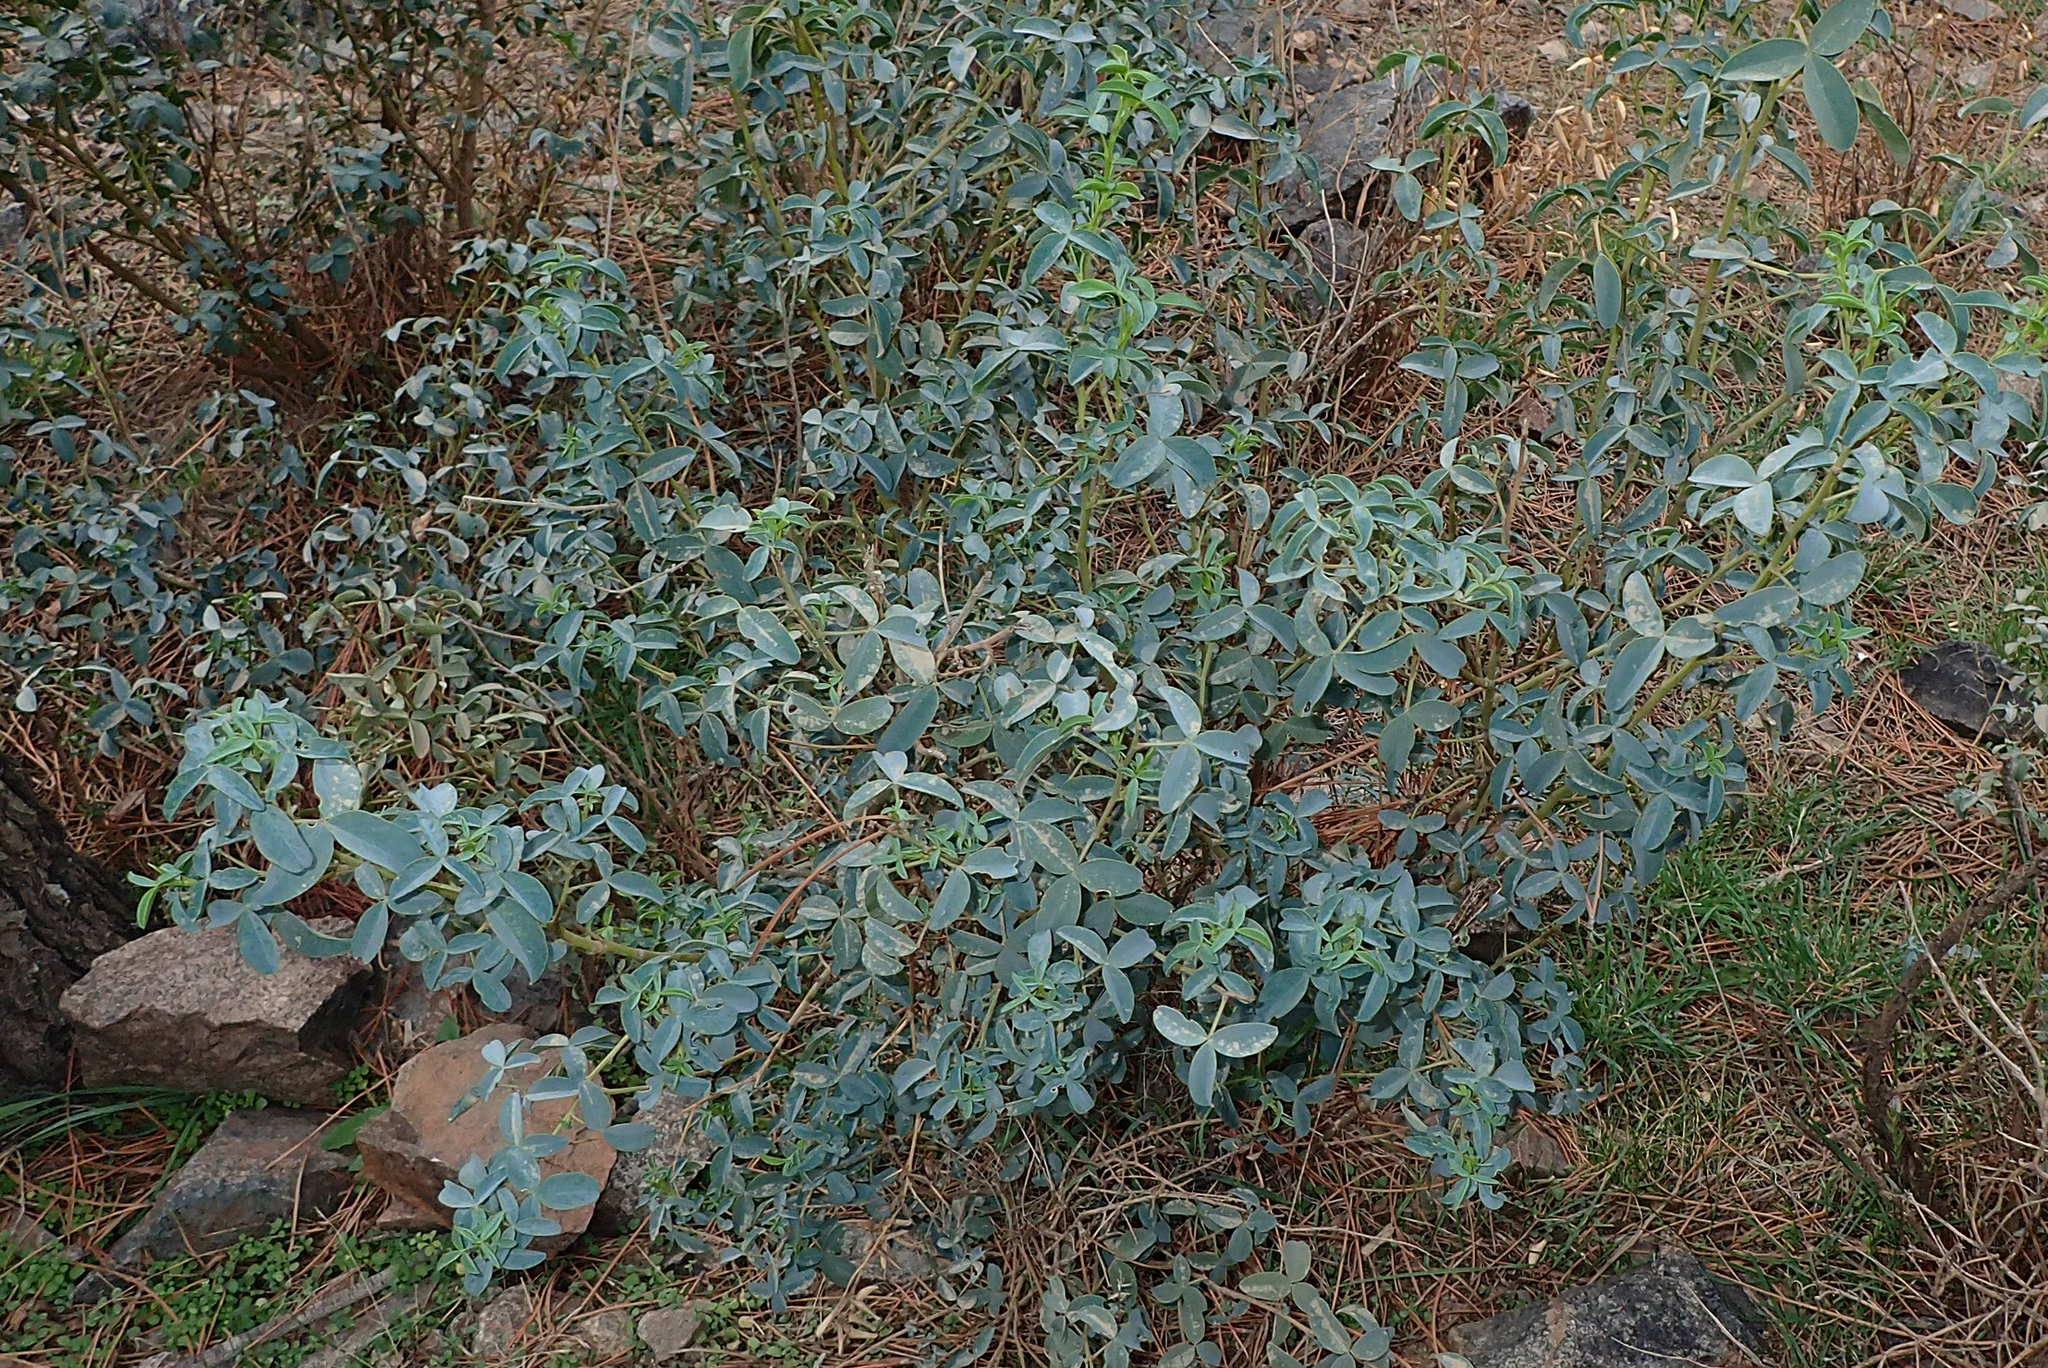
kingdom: Plantae
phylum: Tracheophyta
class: Magnoliopsida
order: Fabales
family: Fabaceae
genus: Adenocarpus
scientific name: Adenocarpus anagyrifolius
